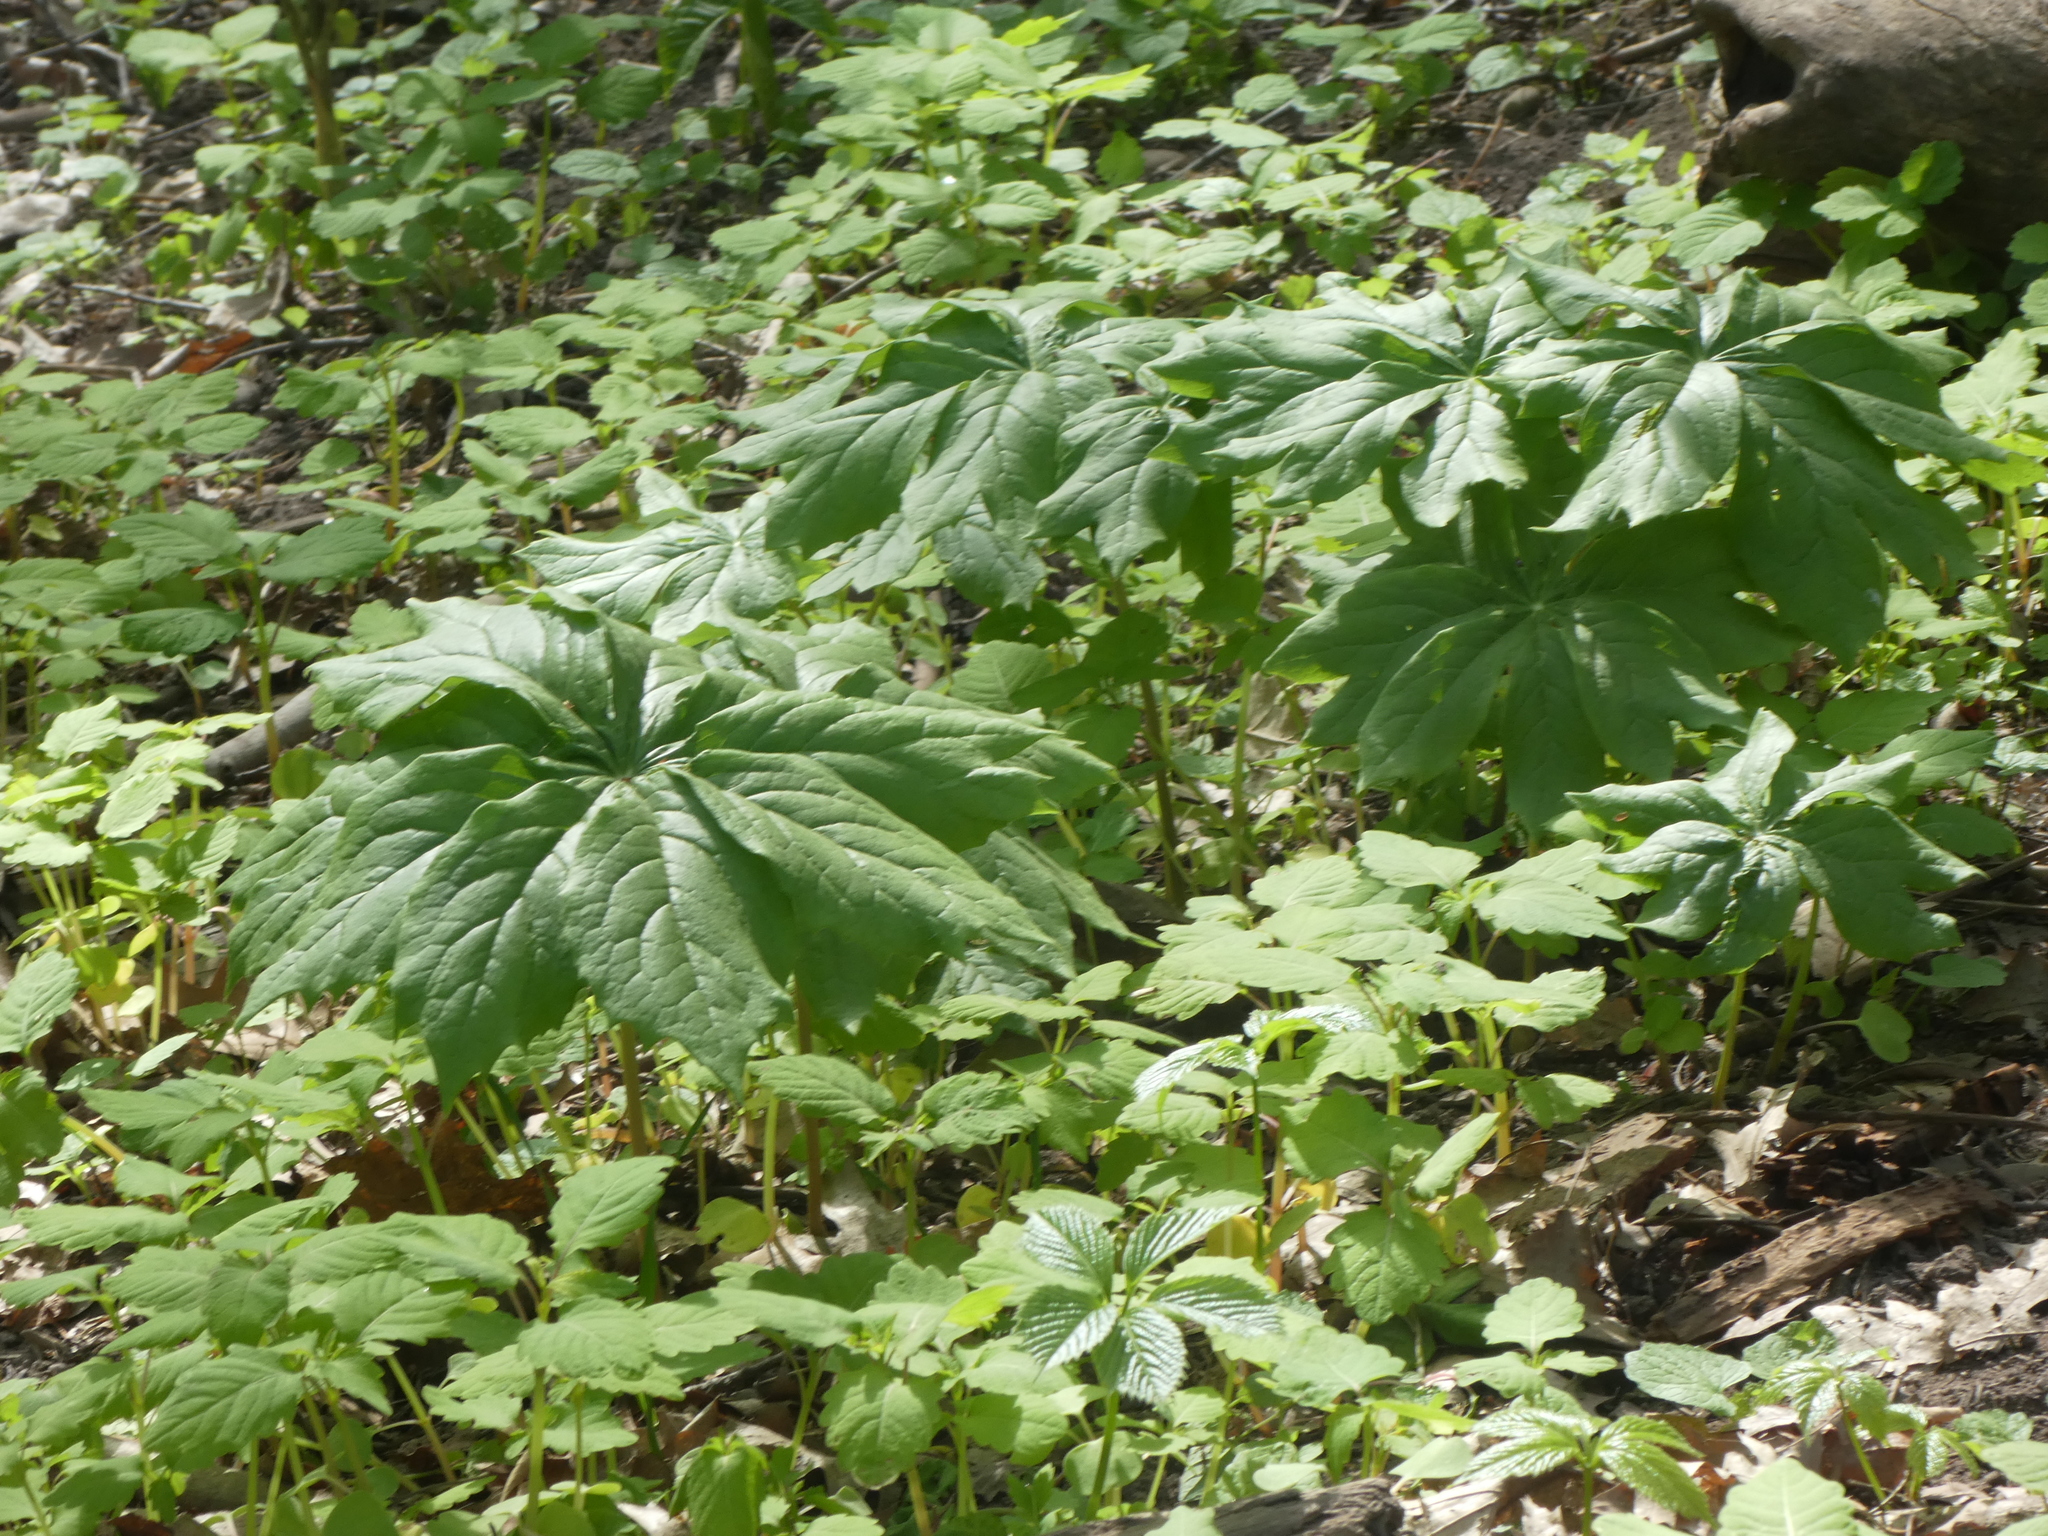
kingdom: Plantae
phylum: Tracheophyta
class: Magnoliopsida
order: Ranunculales
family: Berberidaceae
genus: Podophyllum
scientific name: Podophyllum peltatum
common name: Wild mandrake
